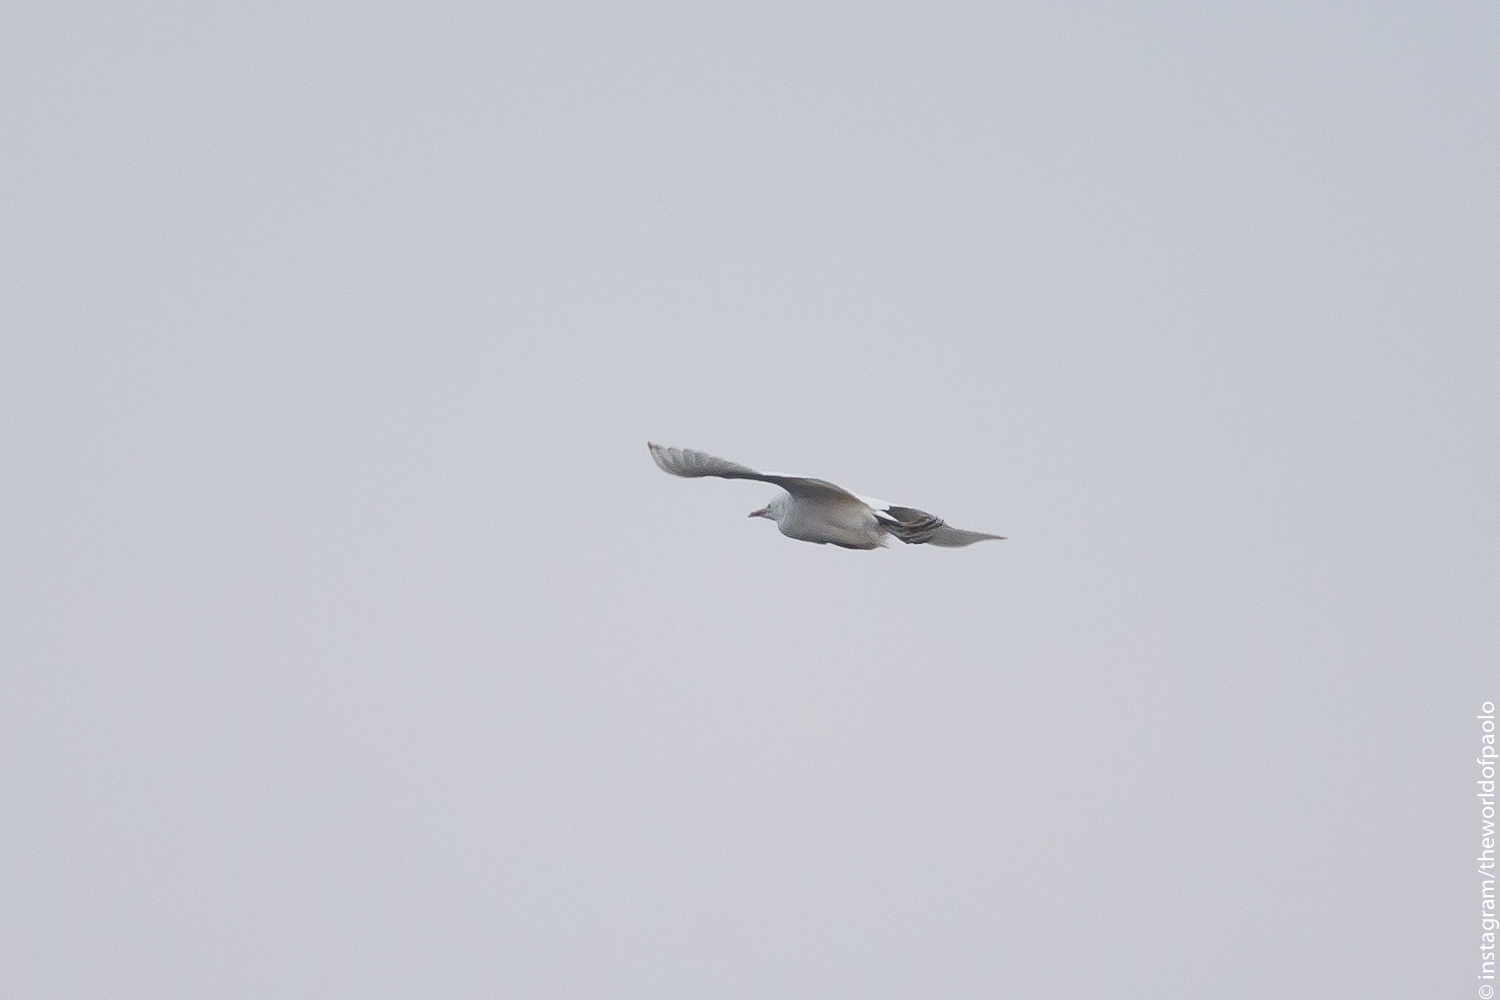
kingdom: Animalia
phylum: Chordata
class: Aves
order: Pelecaniformes
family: Ardeidae
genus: Bubulcus
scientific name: Bubulcus ibis
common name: Cattle egret
